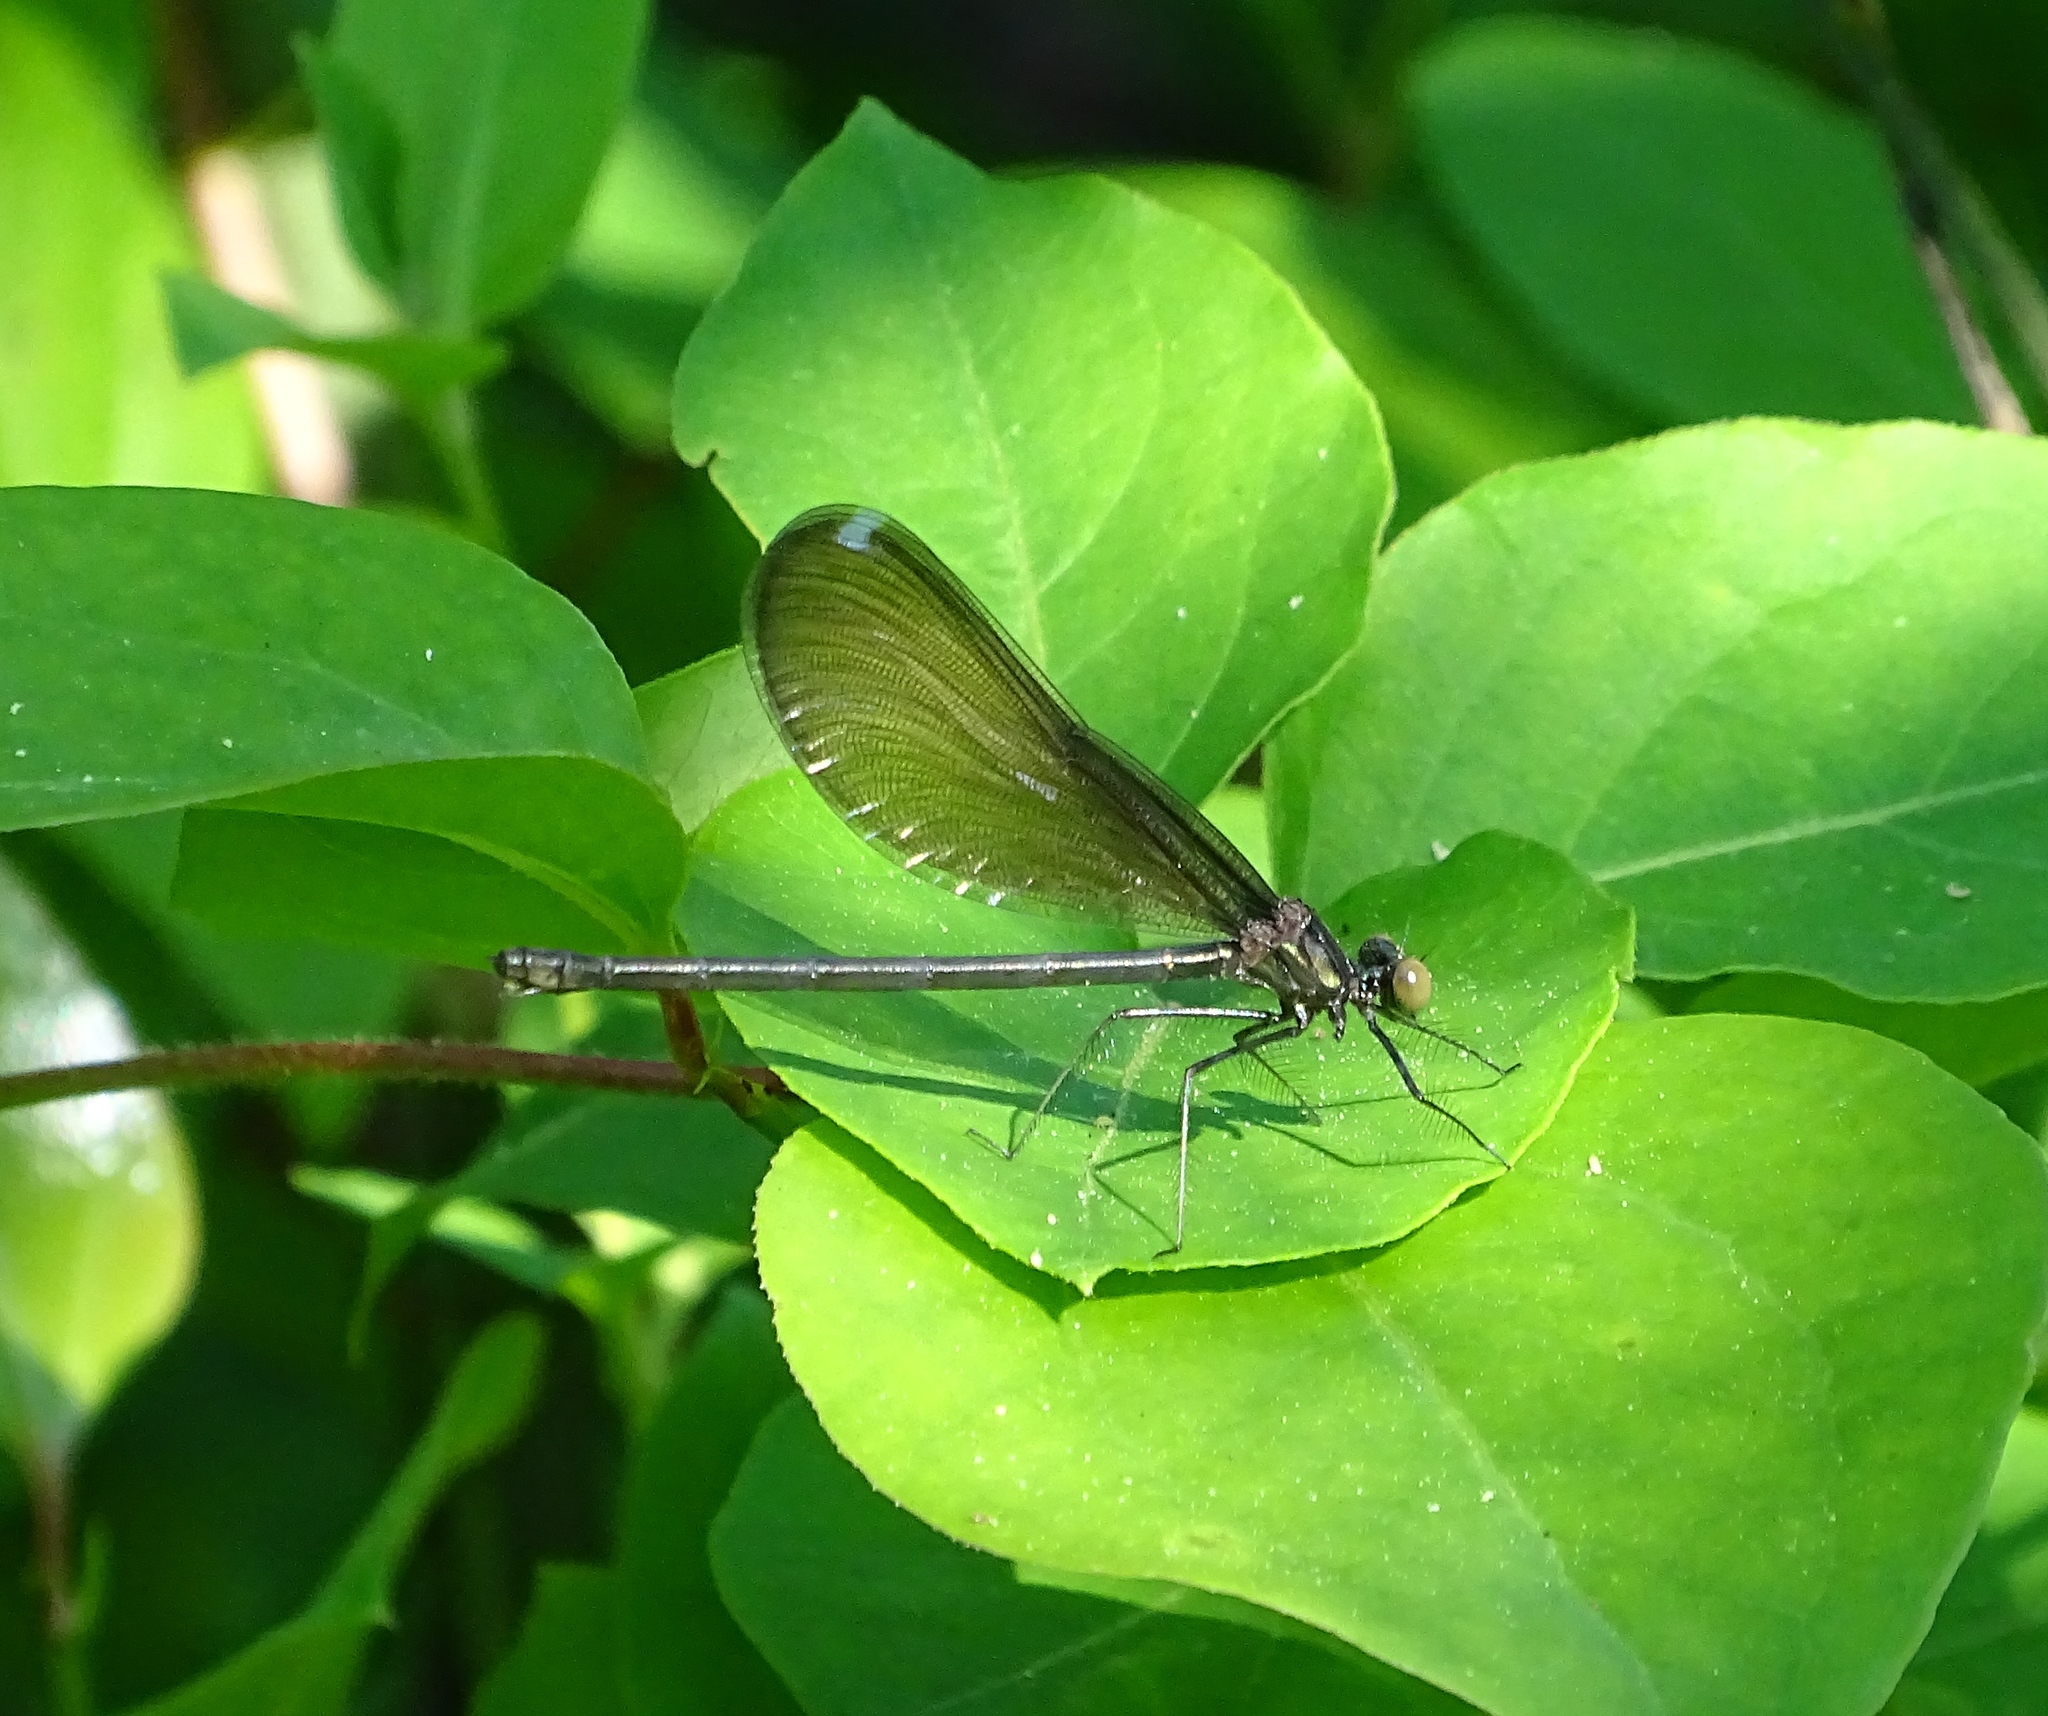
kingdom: Animalia
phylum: Arthropoda
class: Insecta
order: Odonata
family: Calopterygidae
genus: Calopteryx
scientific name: Calopteryx maculata
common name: Ebony jewelwing
